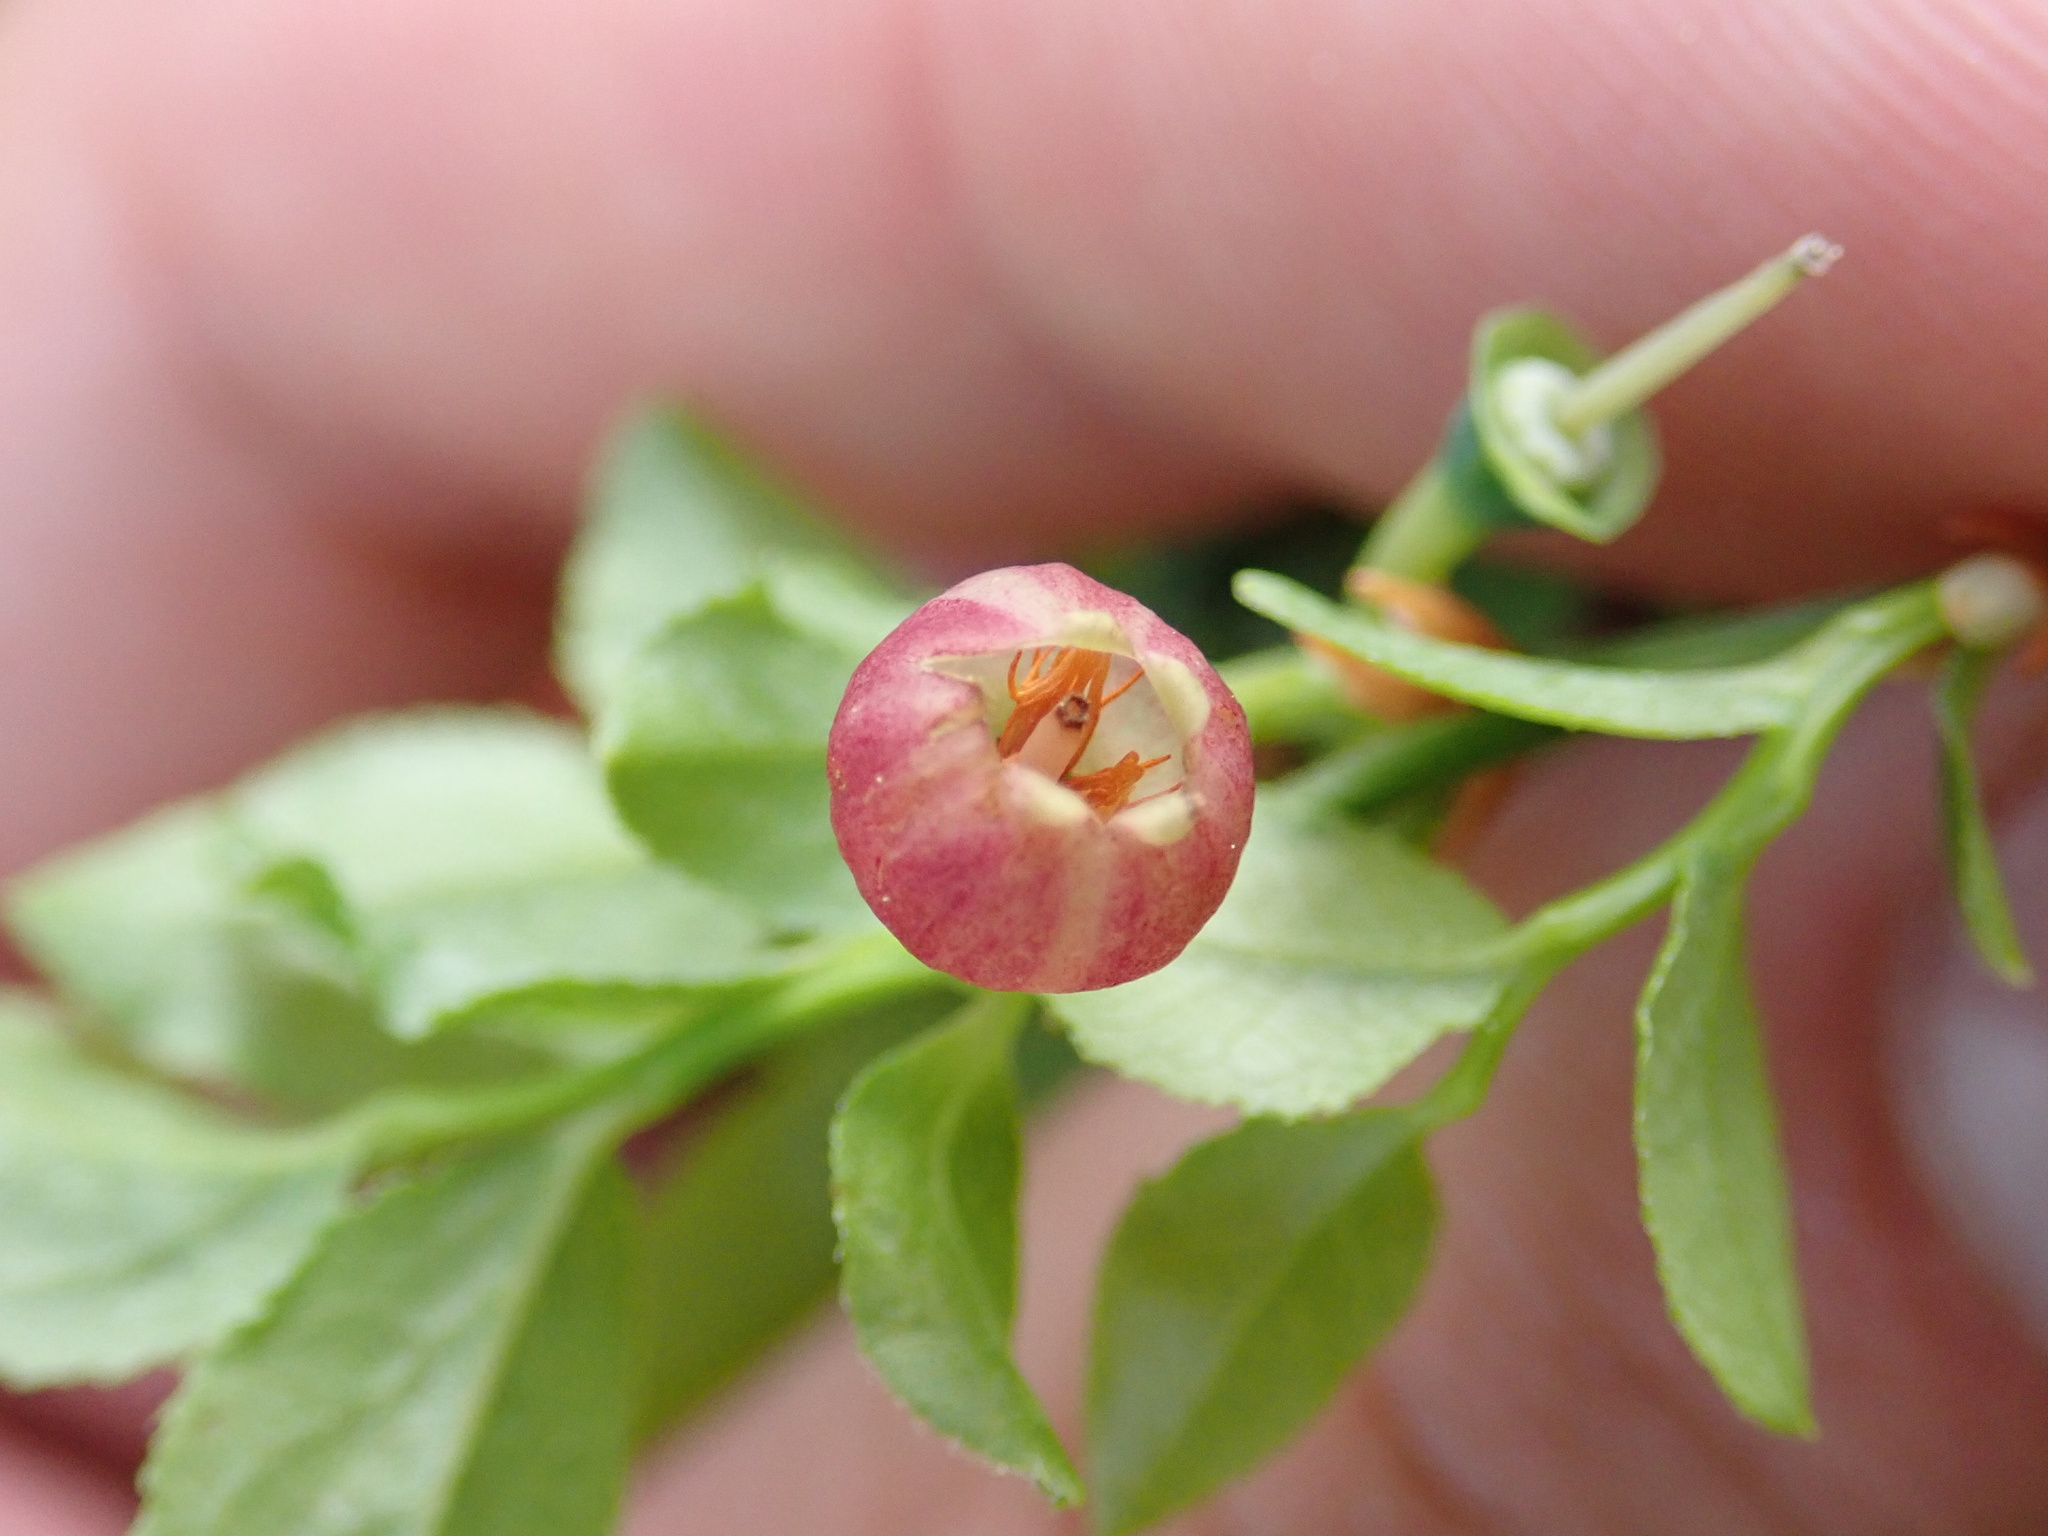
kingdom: Plantae
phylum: Tracheophyta
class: Magnoliopsida
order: Ericales
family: Ericaceae
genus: Vaccinium
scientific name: Vaccinium myrtillus
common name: Bilberry
